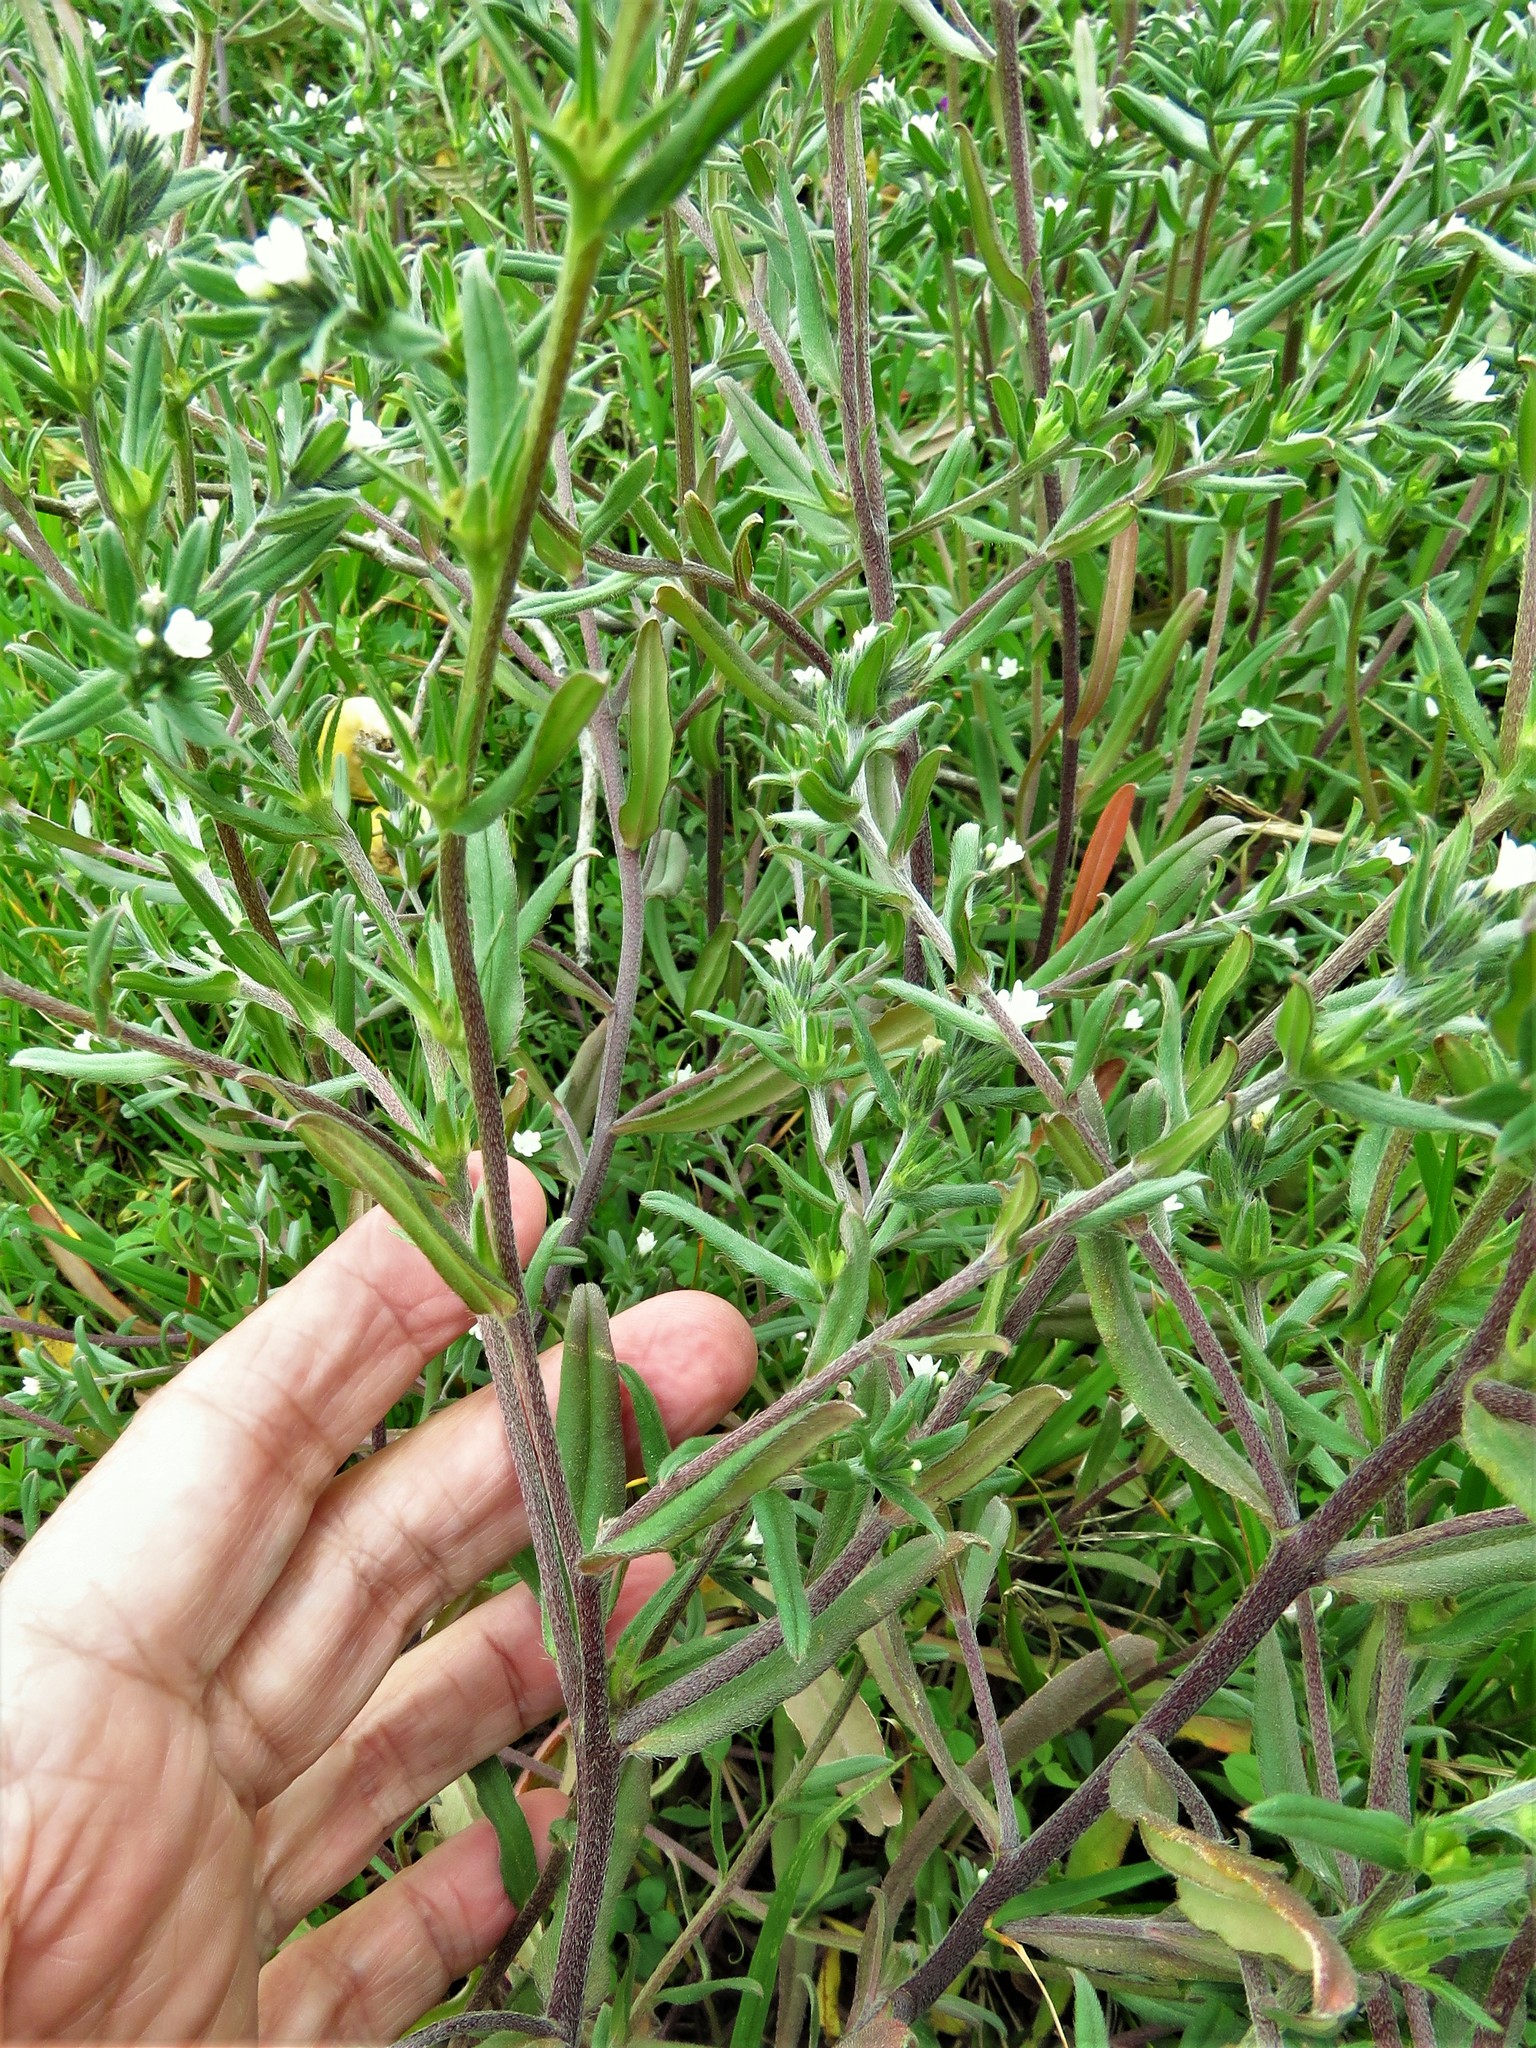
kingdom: Plantae
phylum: Tracheophyta
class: Magnoliopsida
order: Boraginales
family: Boraginaceae
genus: Buglossoides
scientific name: Buglossoides arvensis
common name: Corn gromwell
